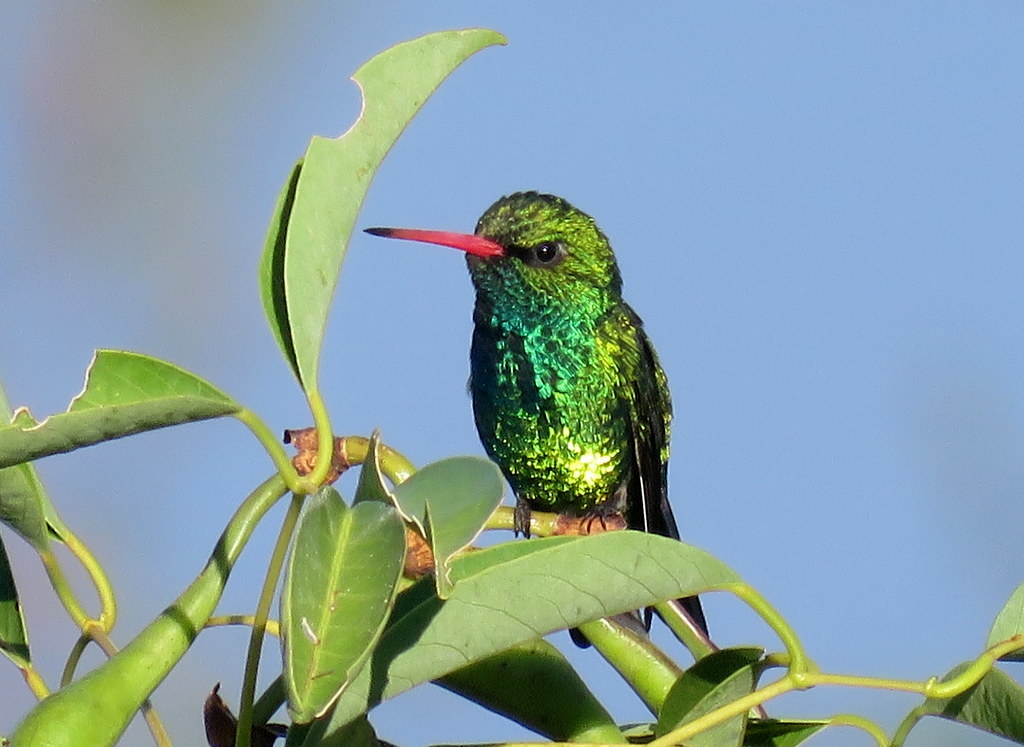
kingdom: Animalia
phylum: Chordata
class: Aves
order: Apodiformes
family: Trochilidae
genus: Chlorostilbon
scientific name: Chlorostilbon lucidus
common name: Glittering-bellied emerald
